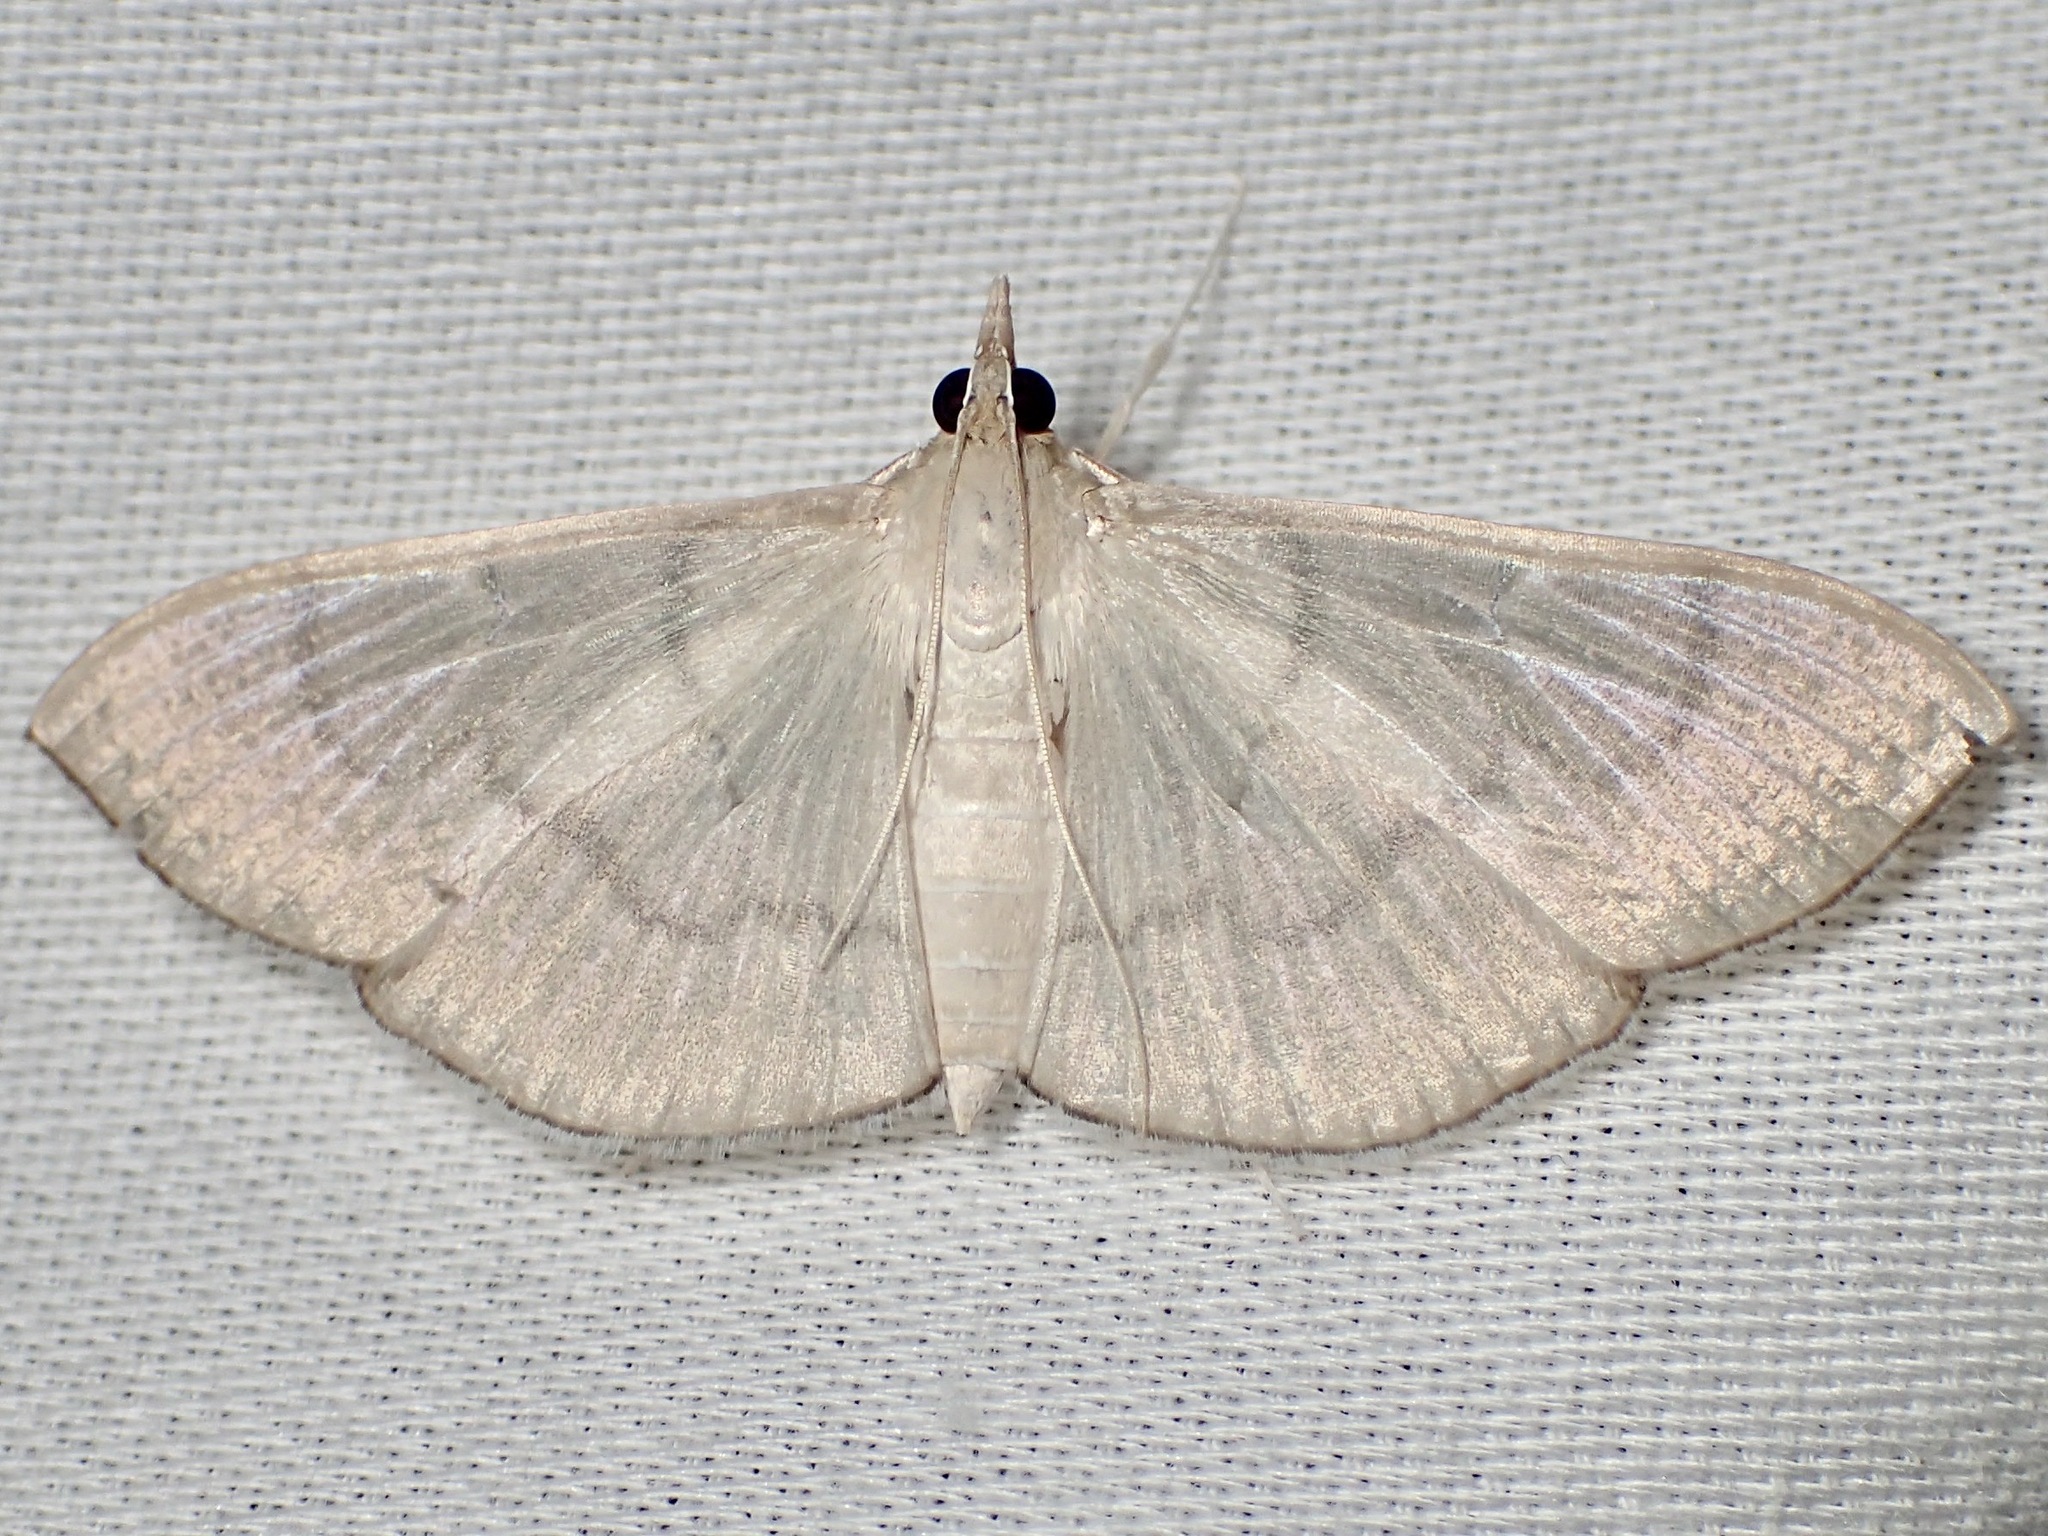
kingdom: Animalia
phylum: Arthropoda
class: Insecta
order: Lepidoptera
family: Crambidae
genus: Lamprophaia
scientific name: Lamprophaia ablactalis
